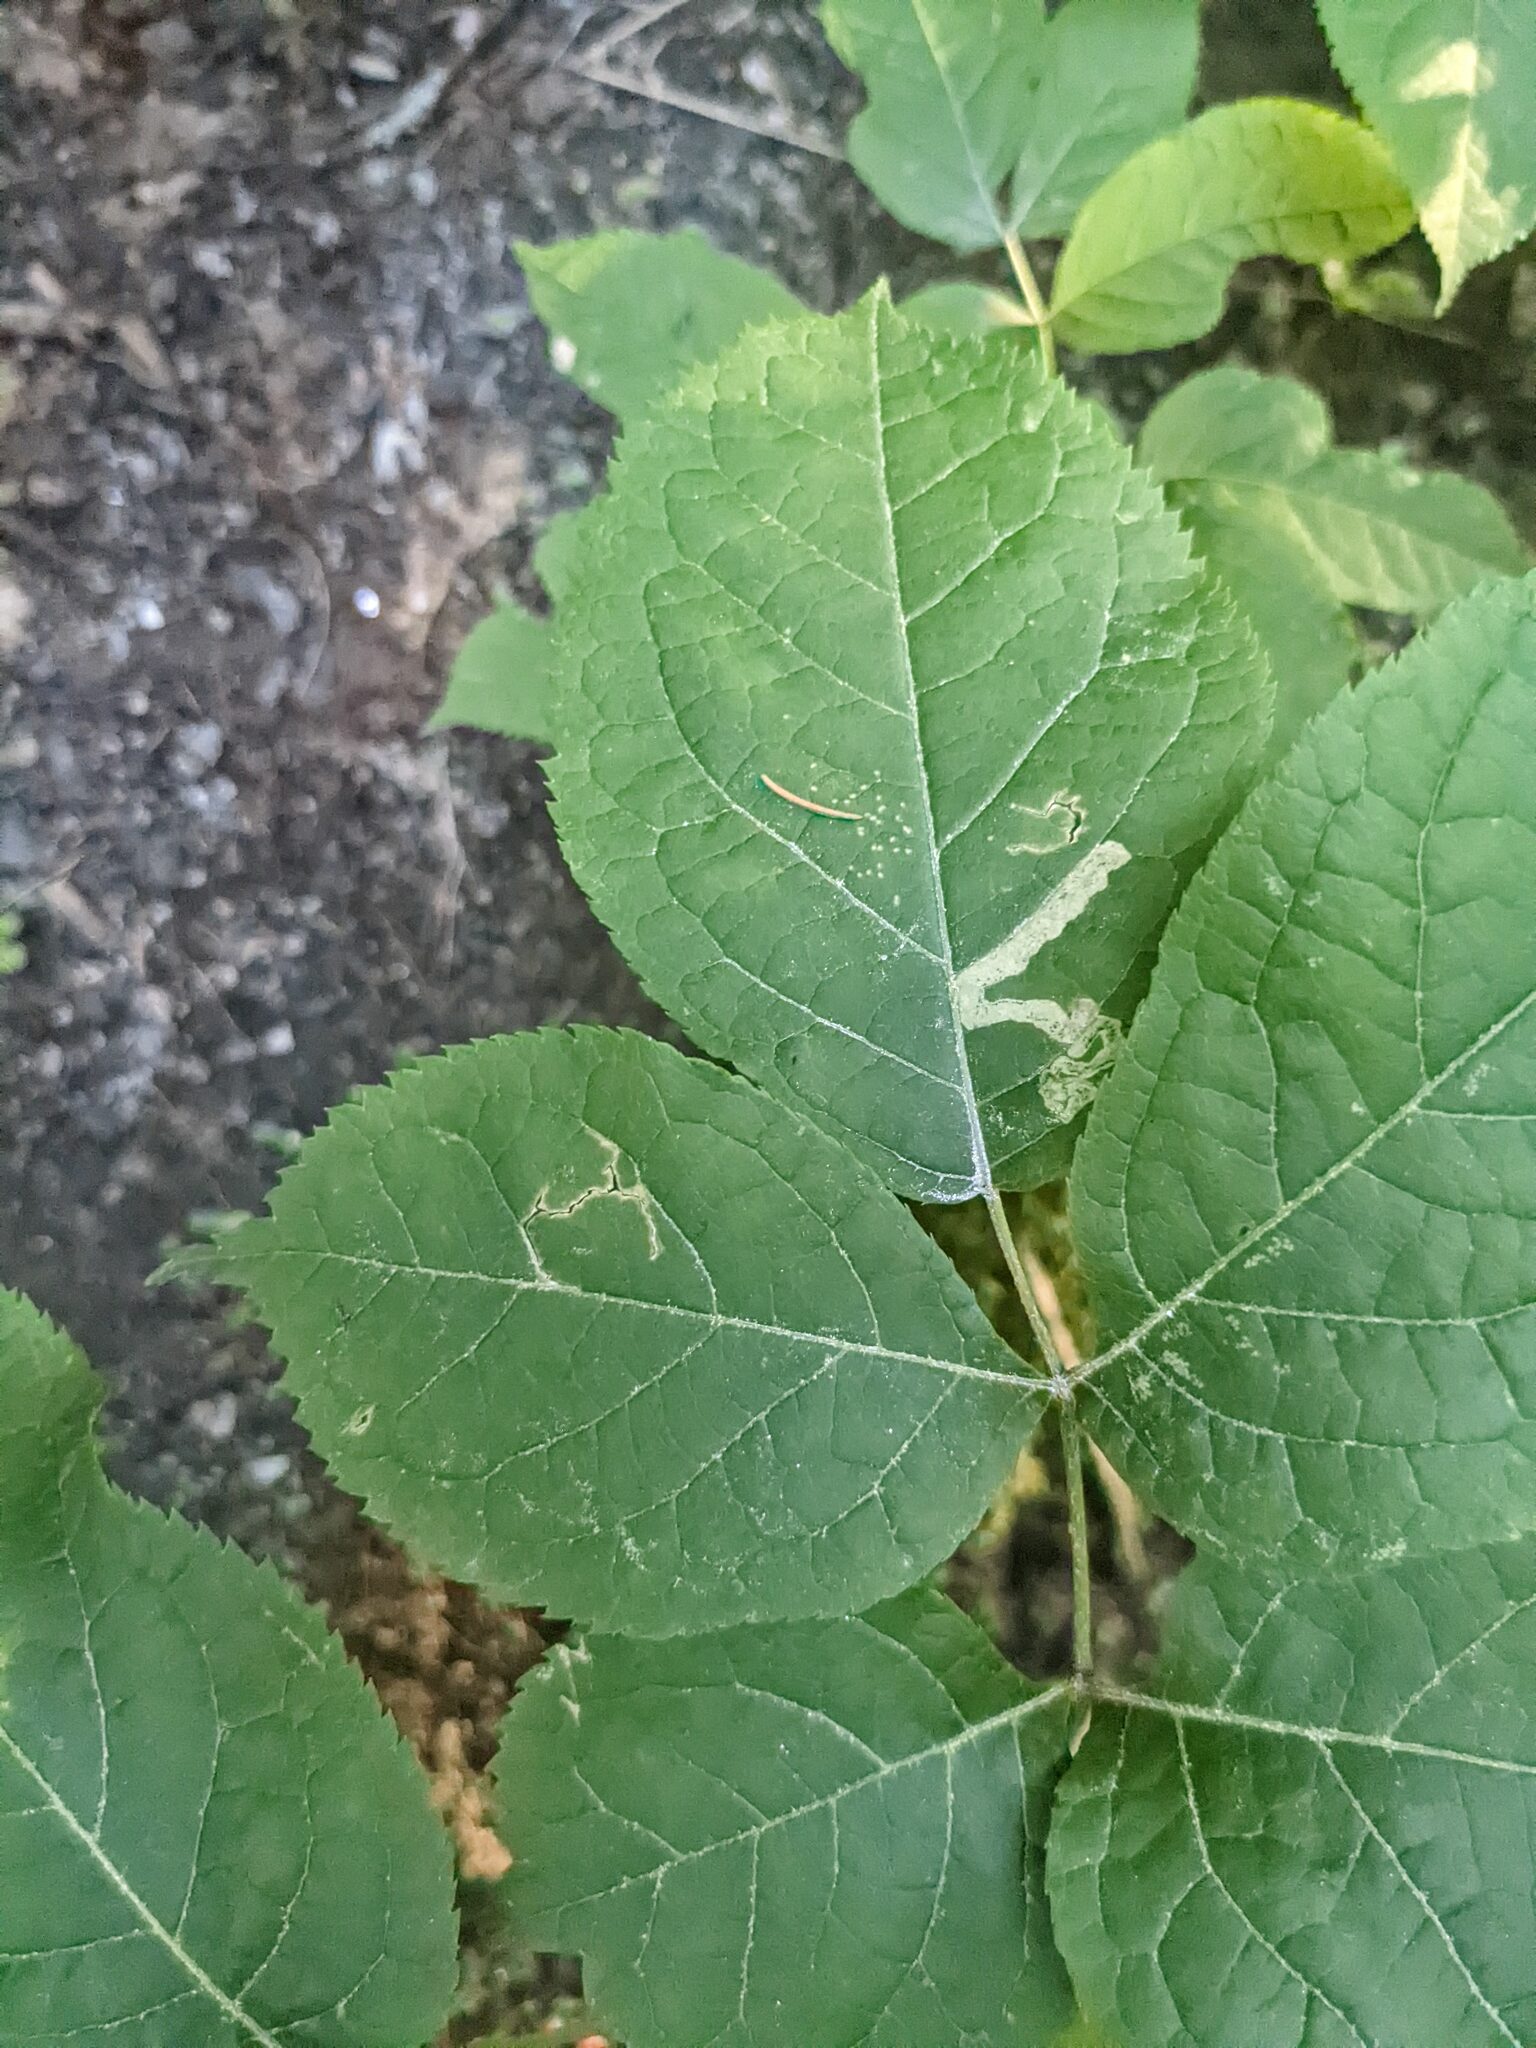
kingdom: Animalia
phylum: Arthropoda
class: Insecta
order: Diptera
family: Agromyzidae
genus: Phytomyza
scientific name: Phytomyza aralivora
